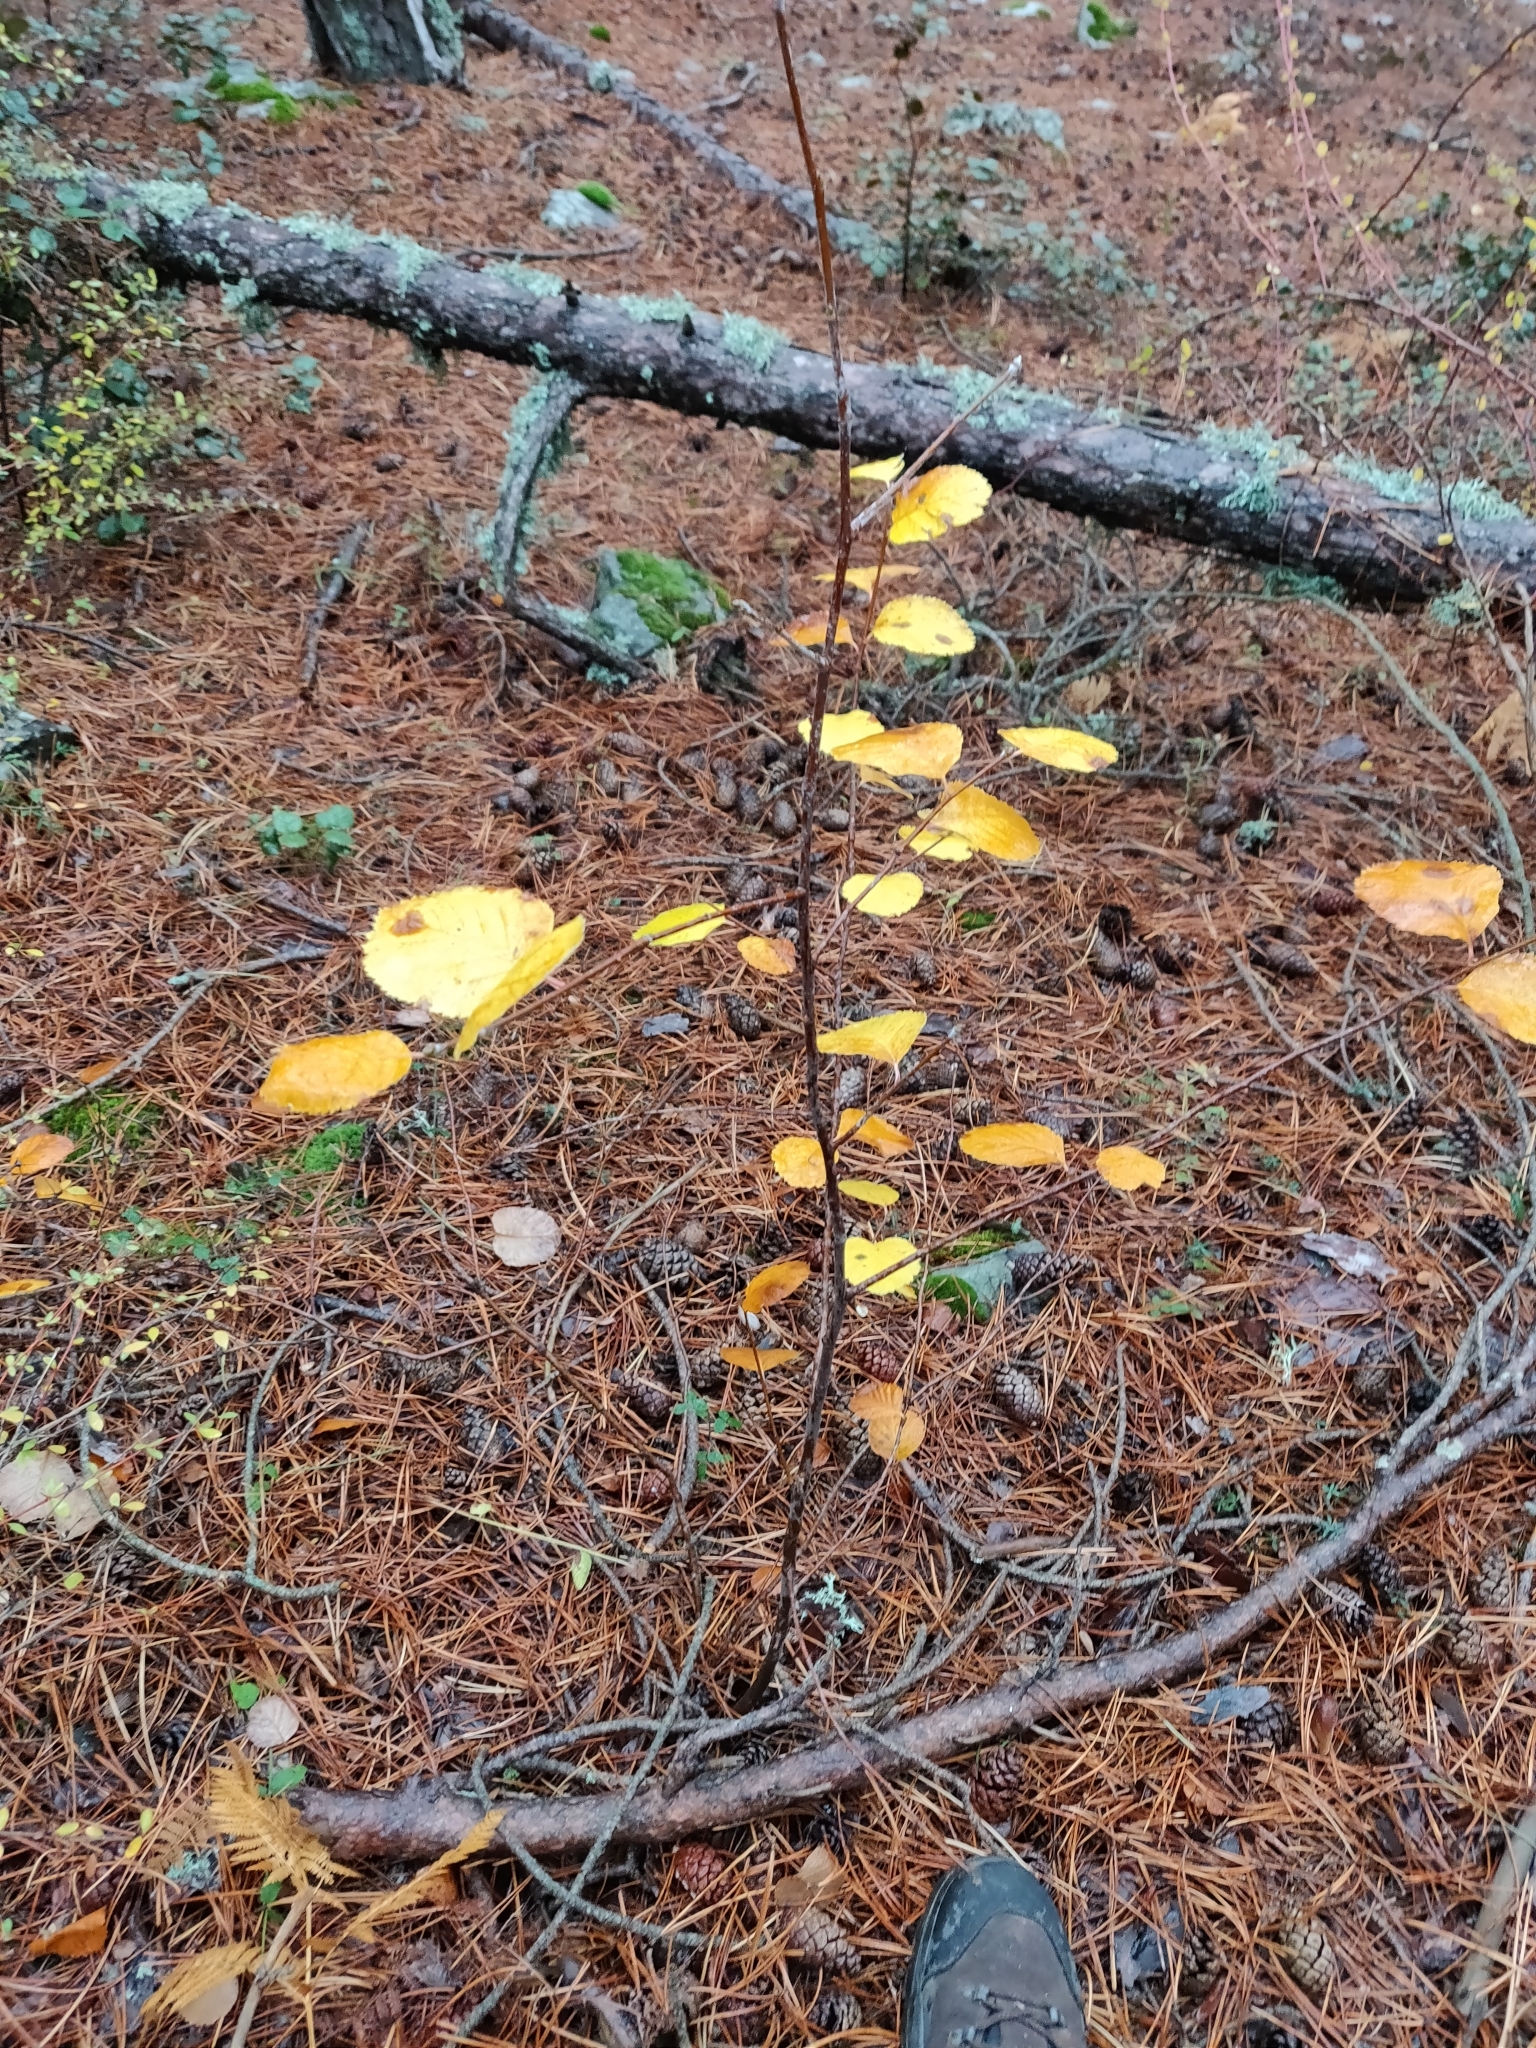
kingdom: Plantae
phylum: Tracheophyta
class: Magnoliopsida
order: Rosales
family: Rosaceae
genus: Aria
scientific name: Aria graeca
